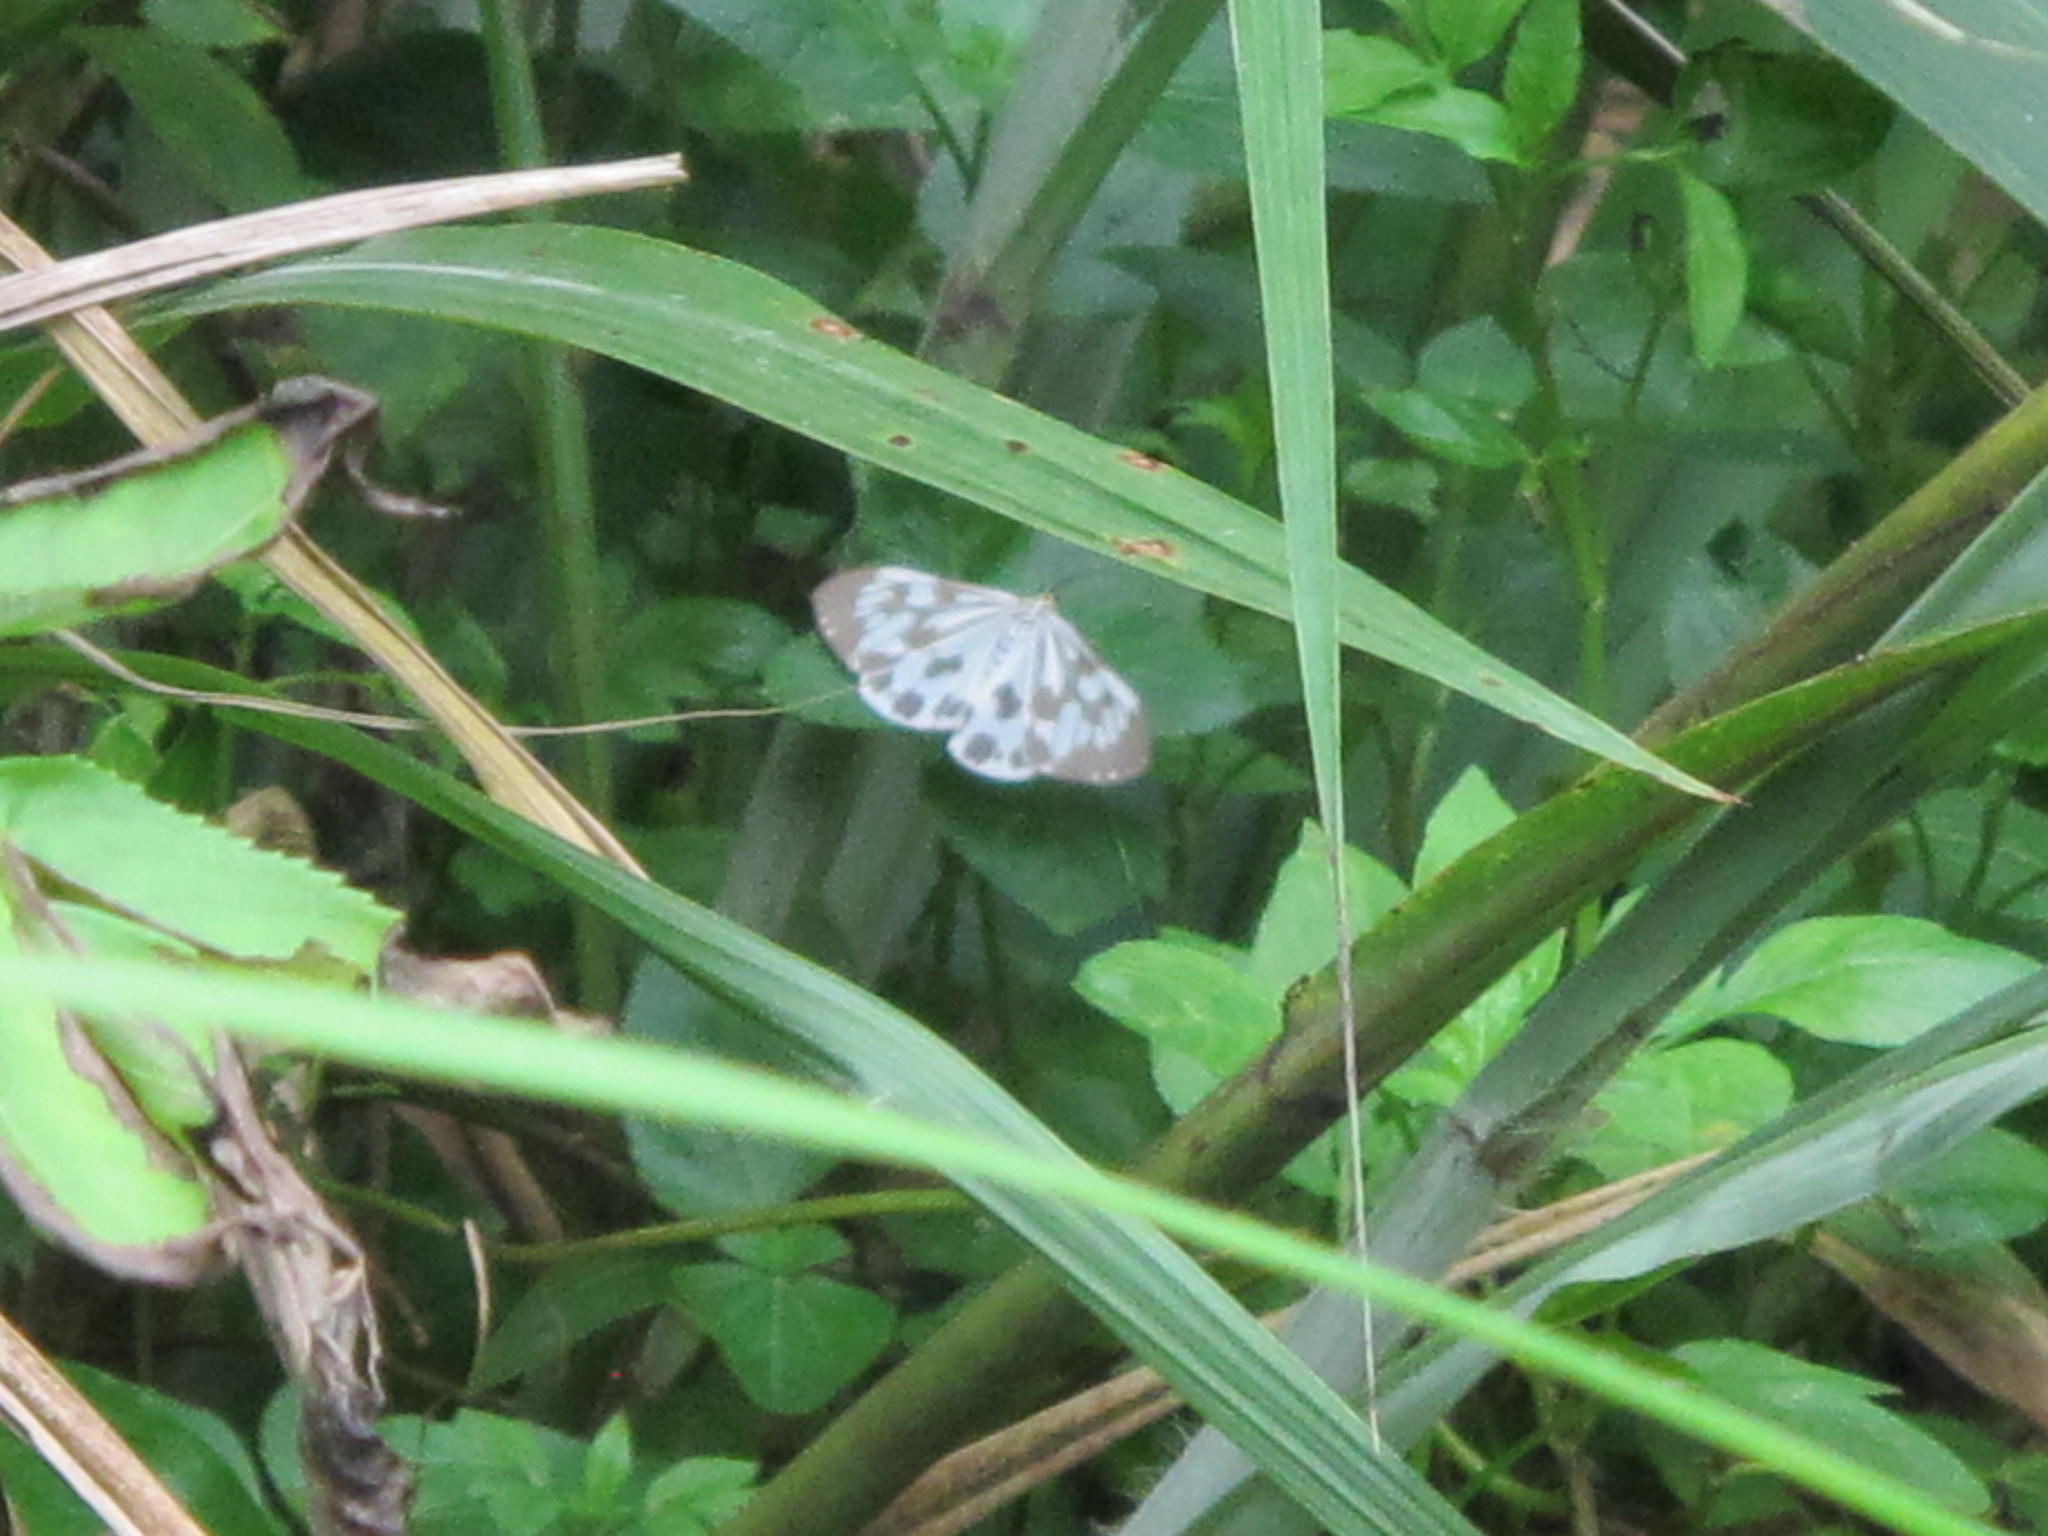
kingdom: Animalia
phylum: Arthropoda
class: Insecta
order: Lepidoptera
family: Erebidae
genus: Nyctemera
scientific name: Nyctemera adversata
